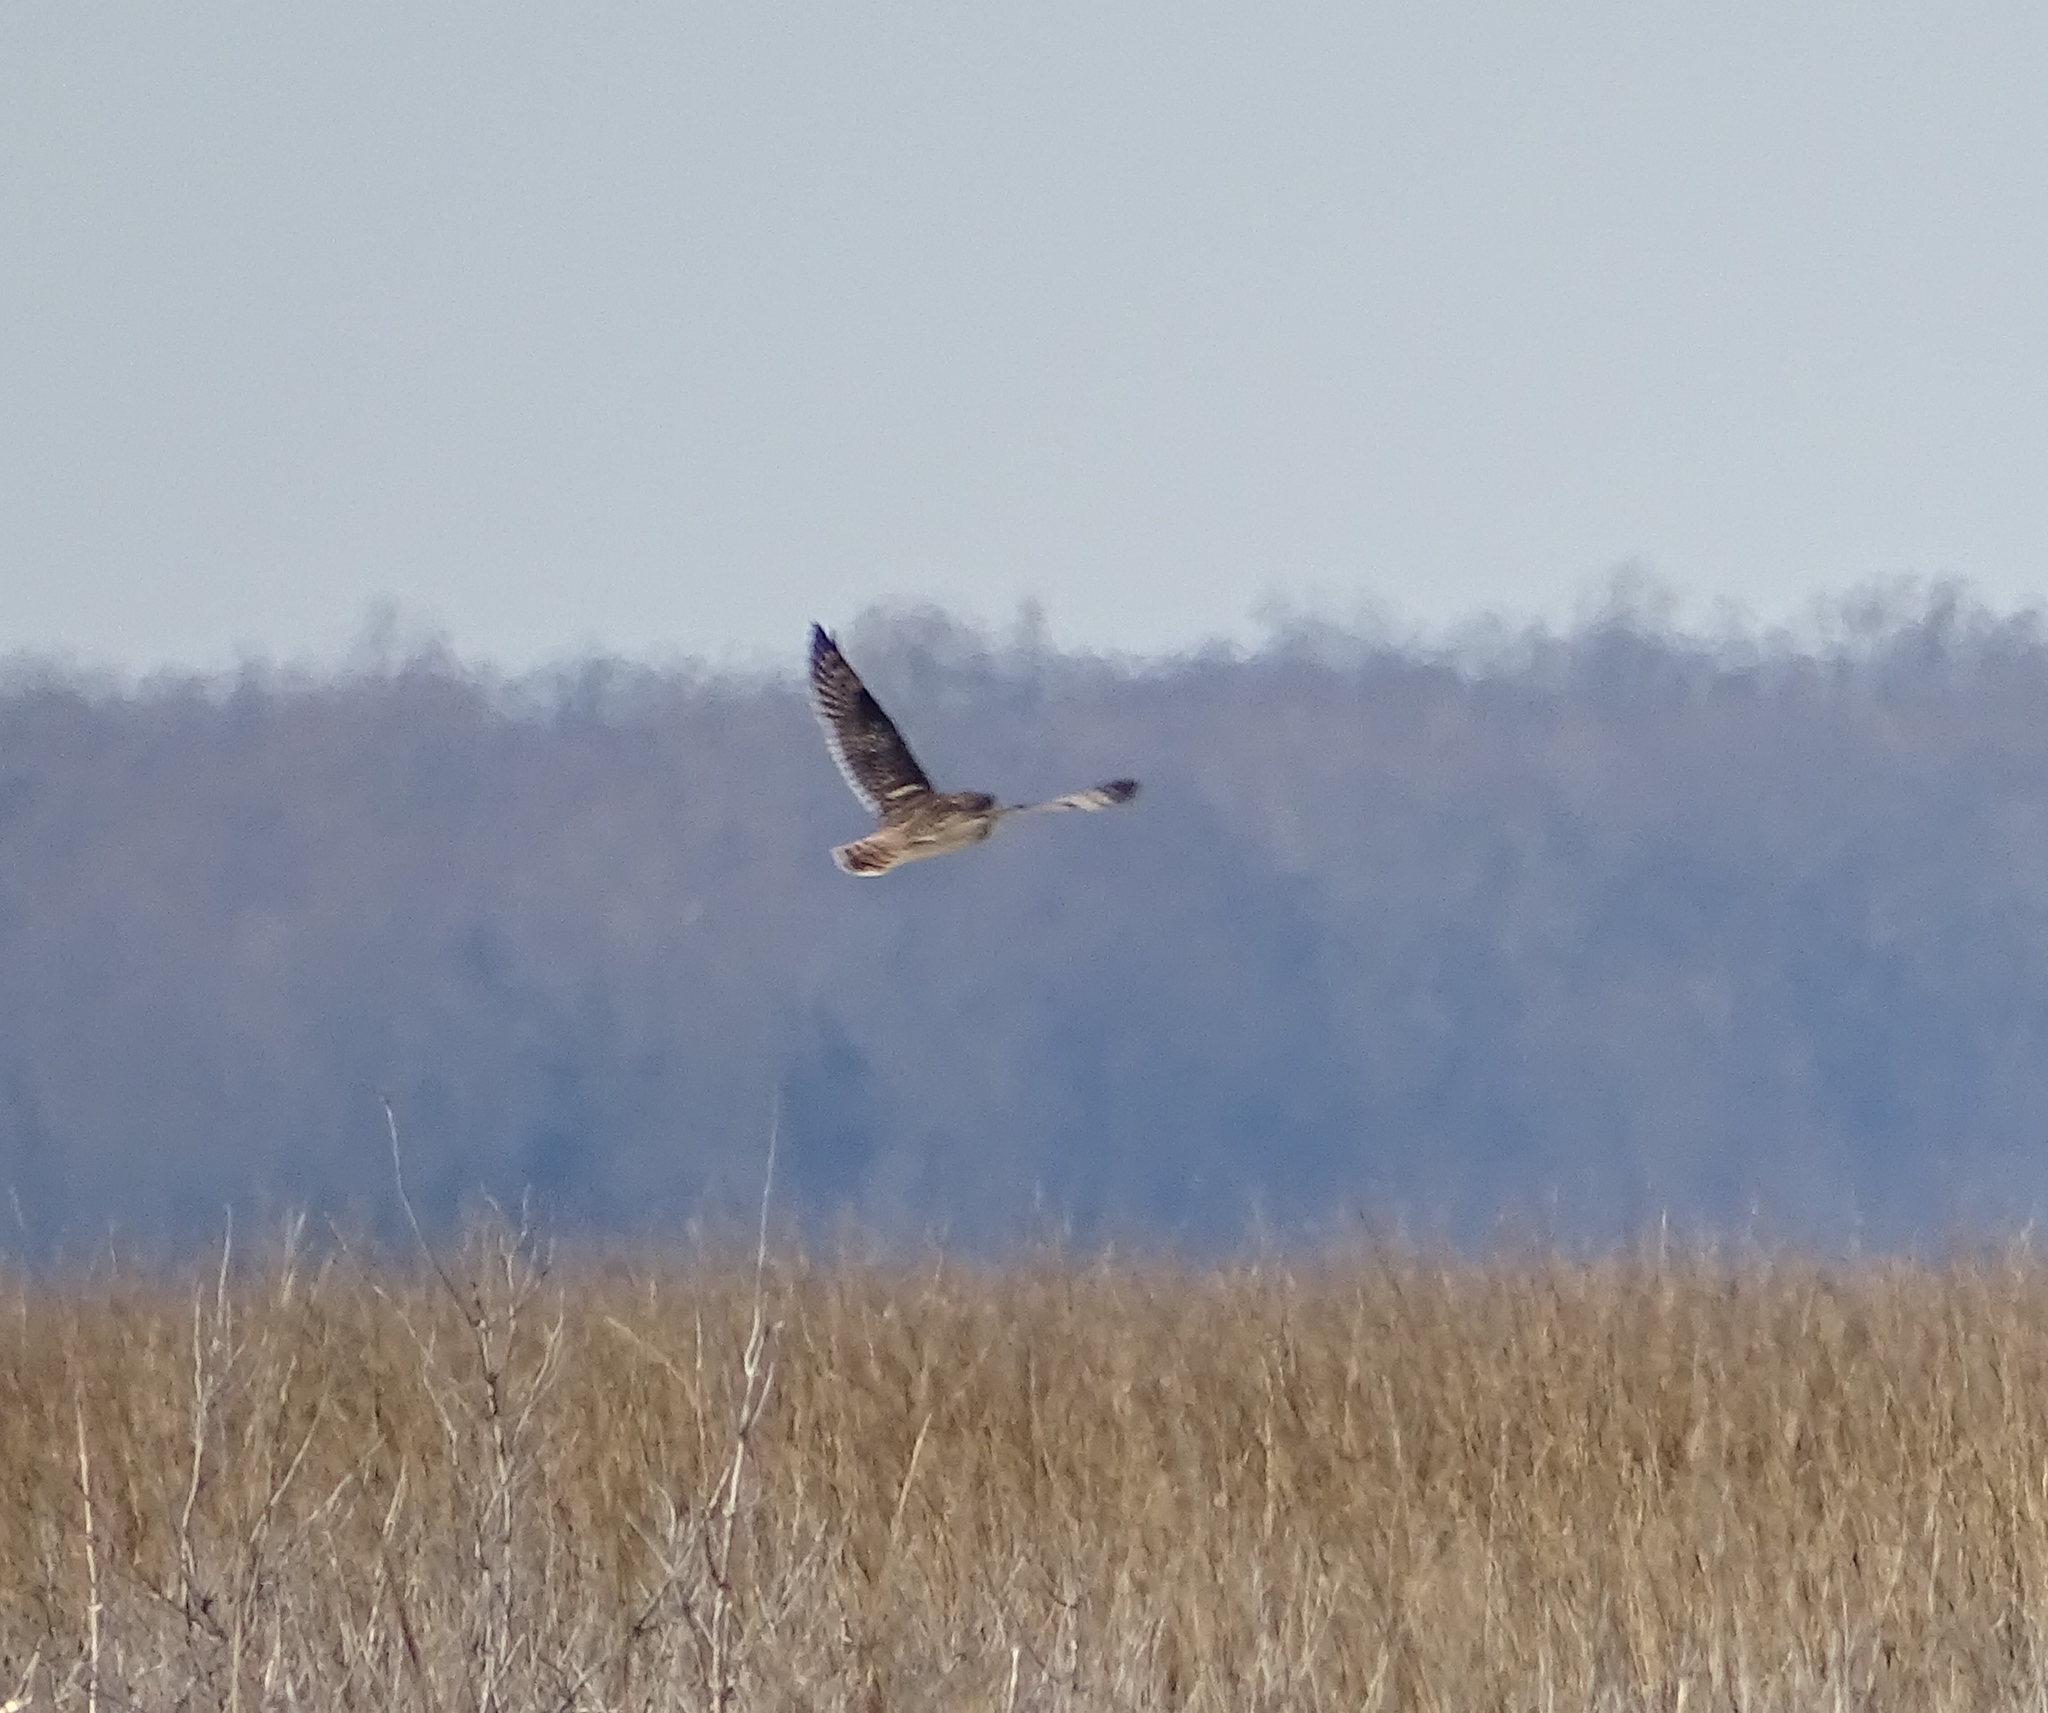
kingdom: Animalia
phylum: Chordata
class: Aves
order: Strigiformes
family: Strigidae
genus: Asio
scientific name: Asio flammeus
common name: Short-eared owl
